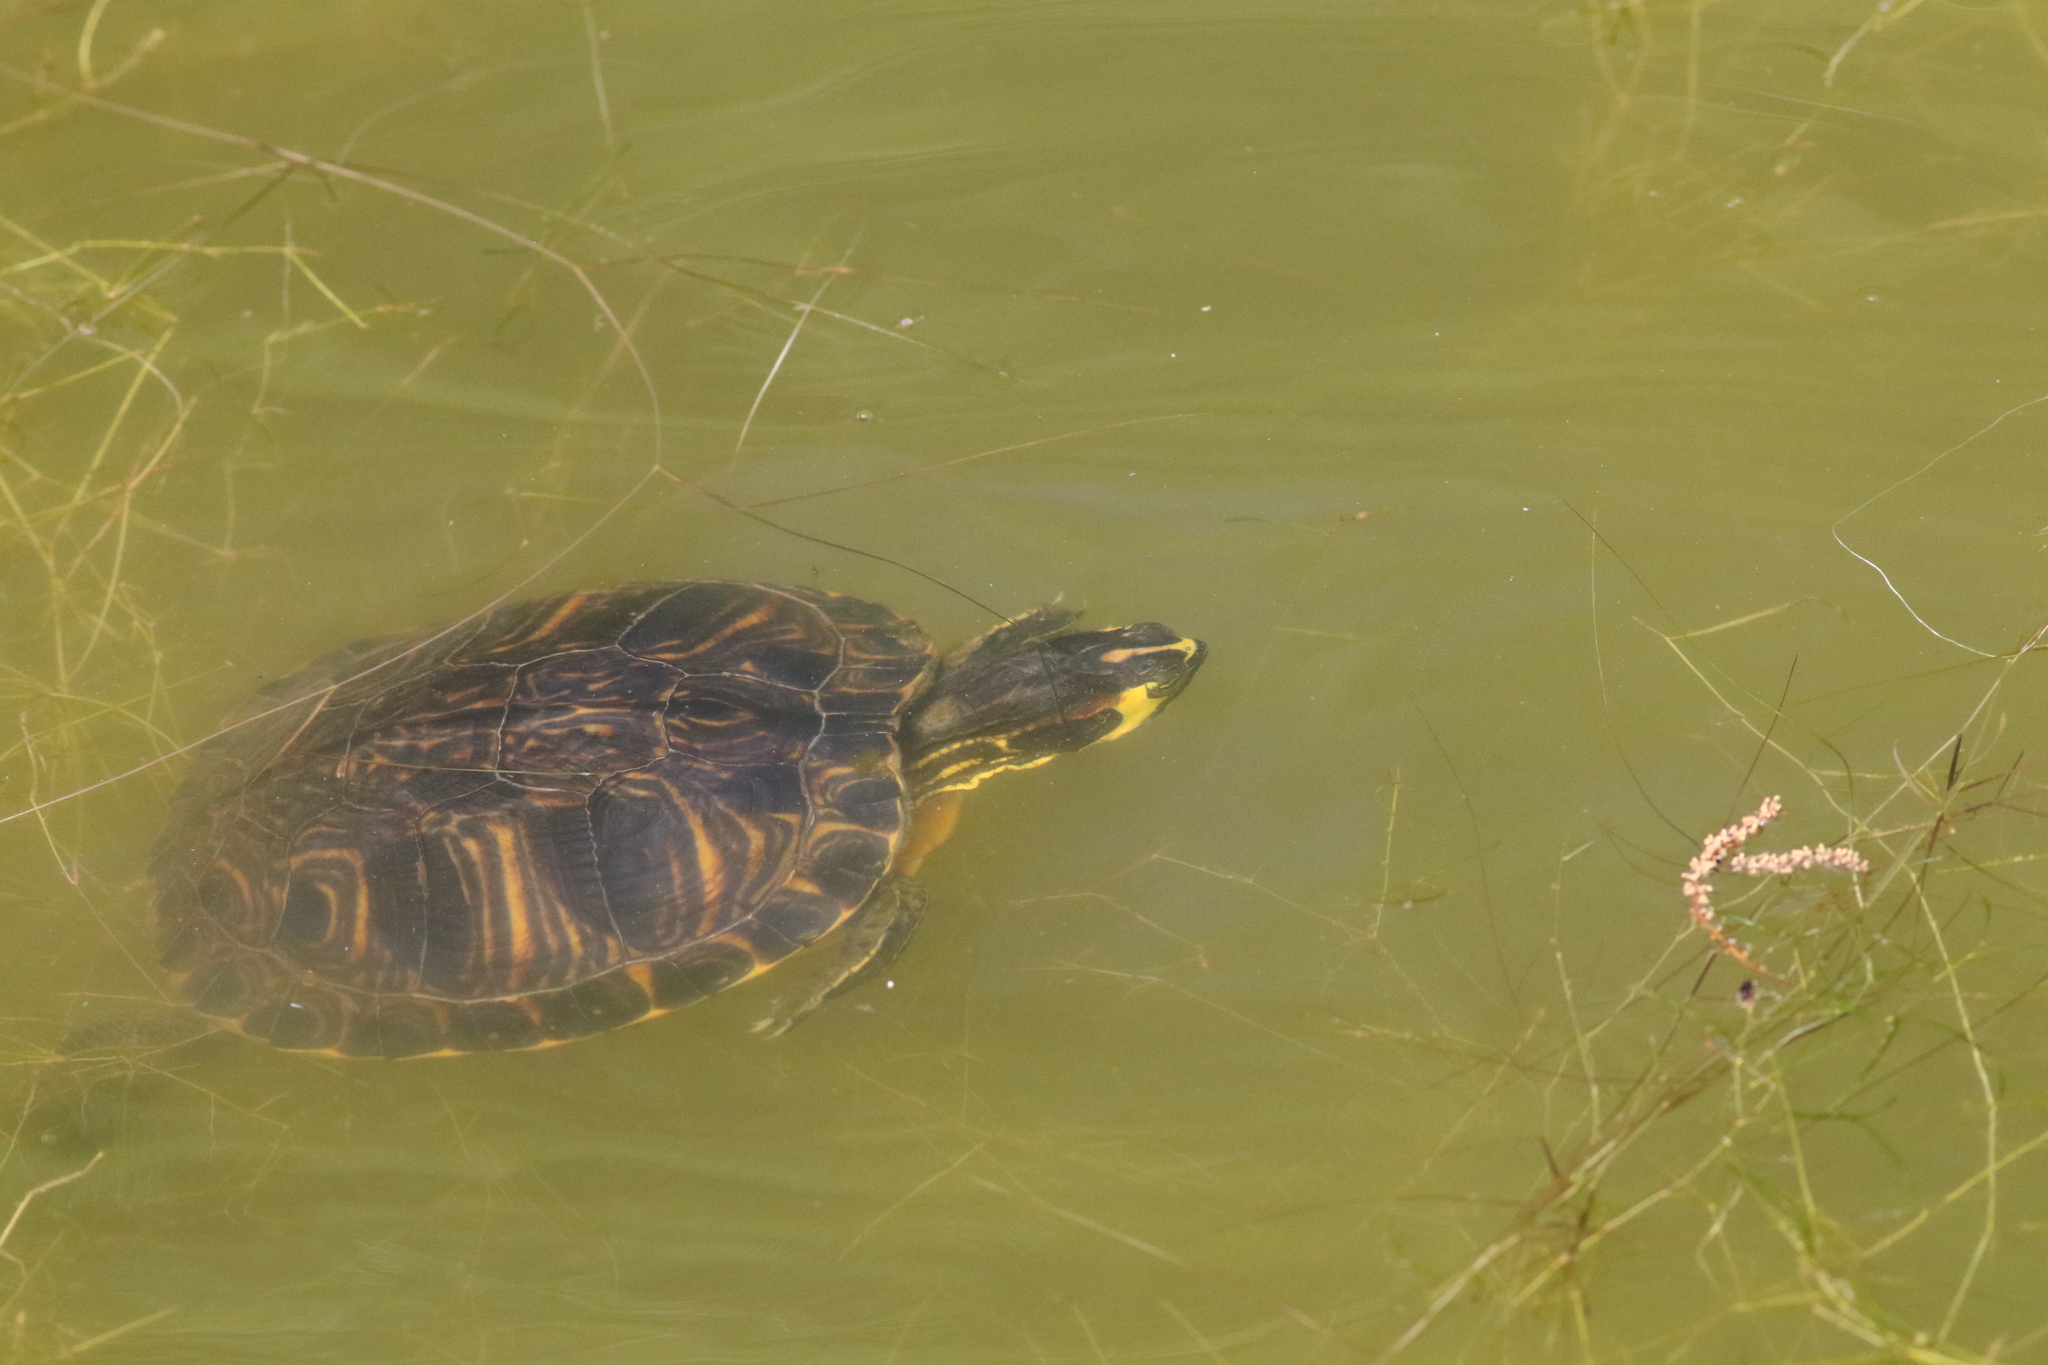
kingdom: Animalia
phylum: Chordata
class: Testudines
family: Emydidae
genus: Trachemys
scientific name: Trachemys scripta
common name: Slider
